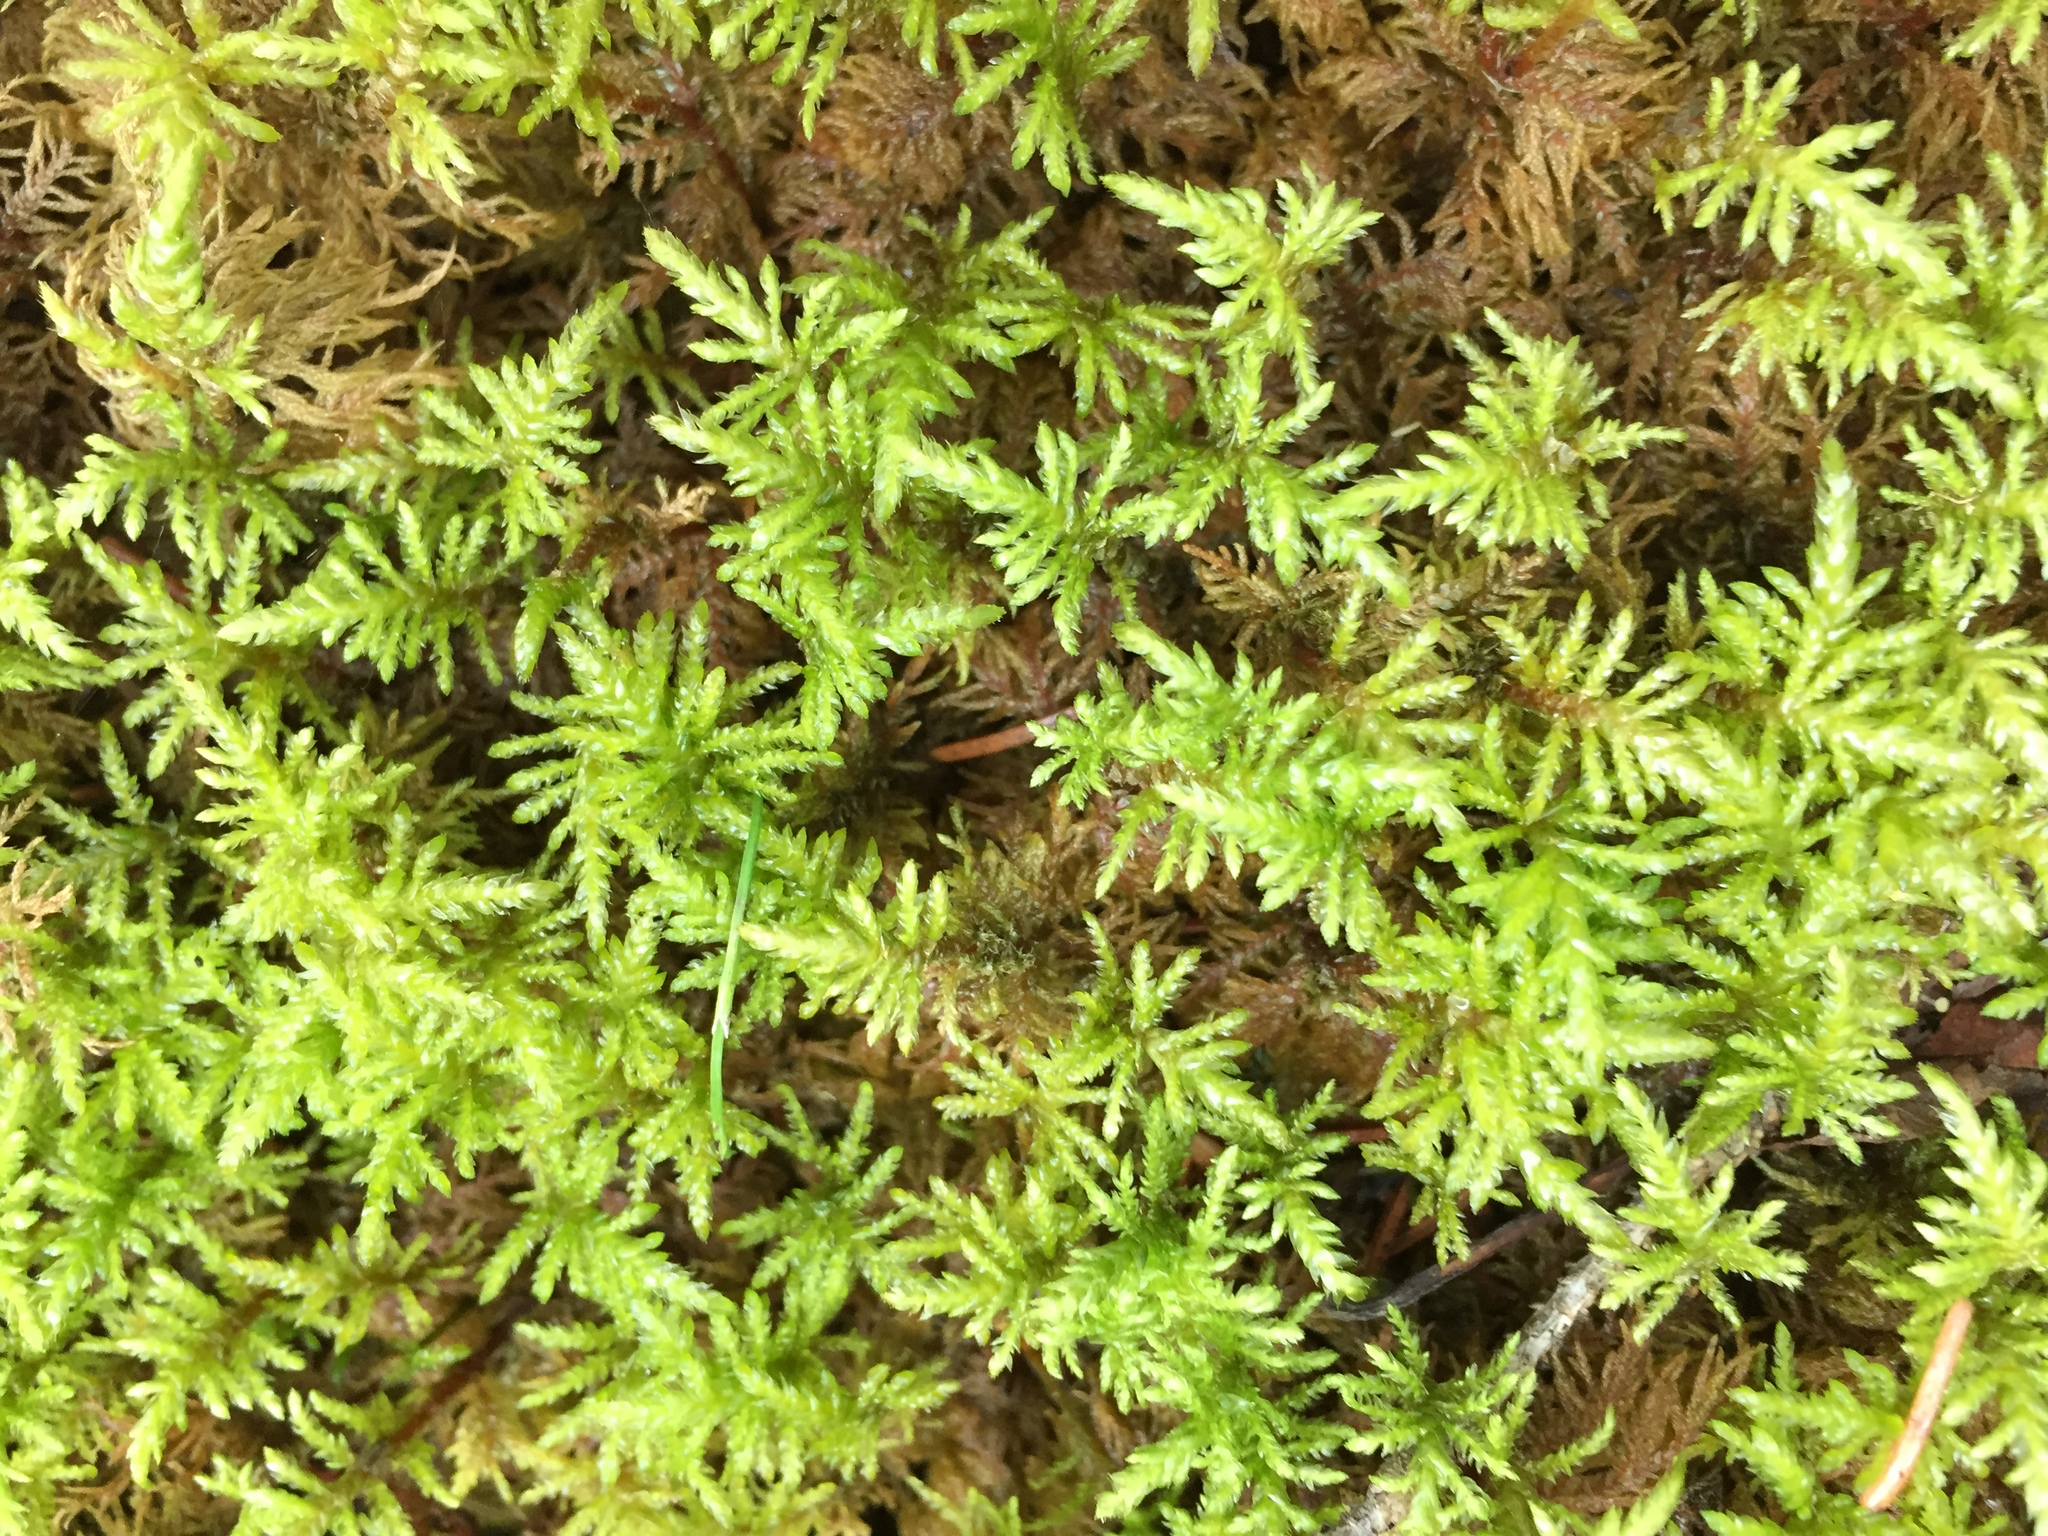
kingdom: Plantae
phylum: Bryophyta
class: Bryopsida
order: Hypnales
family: Hylocomiaceae
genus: Hylocomium
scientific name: Hylocomium splendens
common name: Stairstep moss
